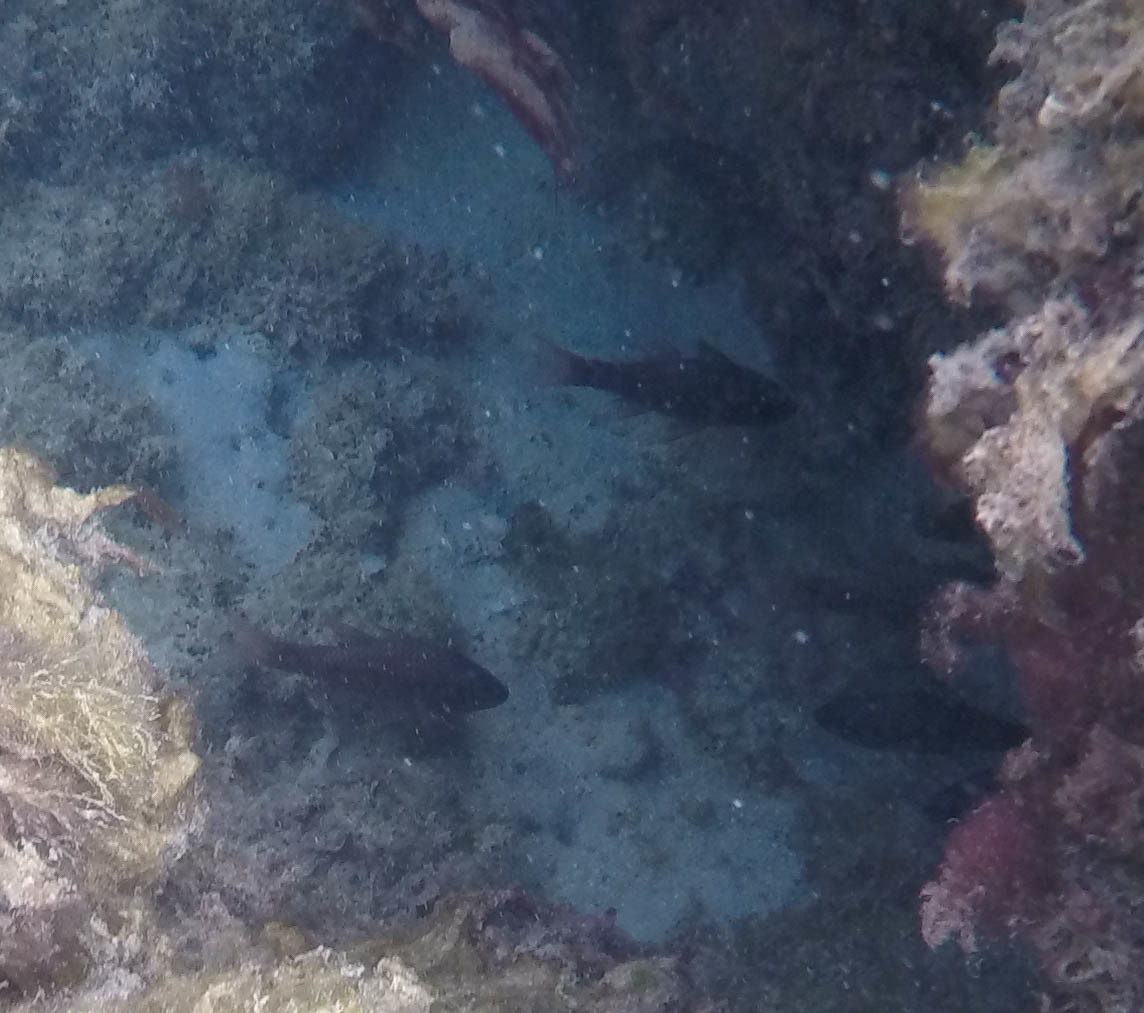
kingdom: Animalia
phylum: Chordata
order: Perciformes
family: Apogonidae
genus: Pristiapogon
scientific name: Pristiapogon kallopterus
